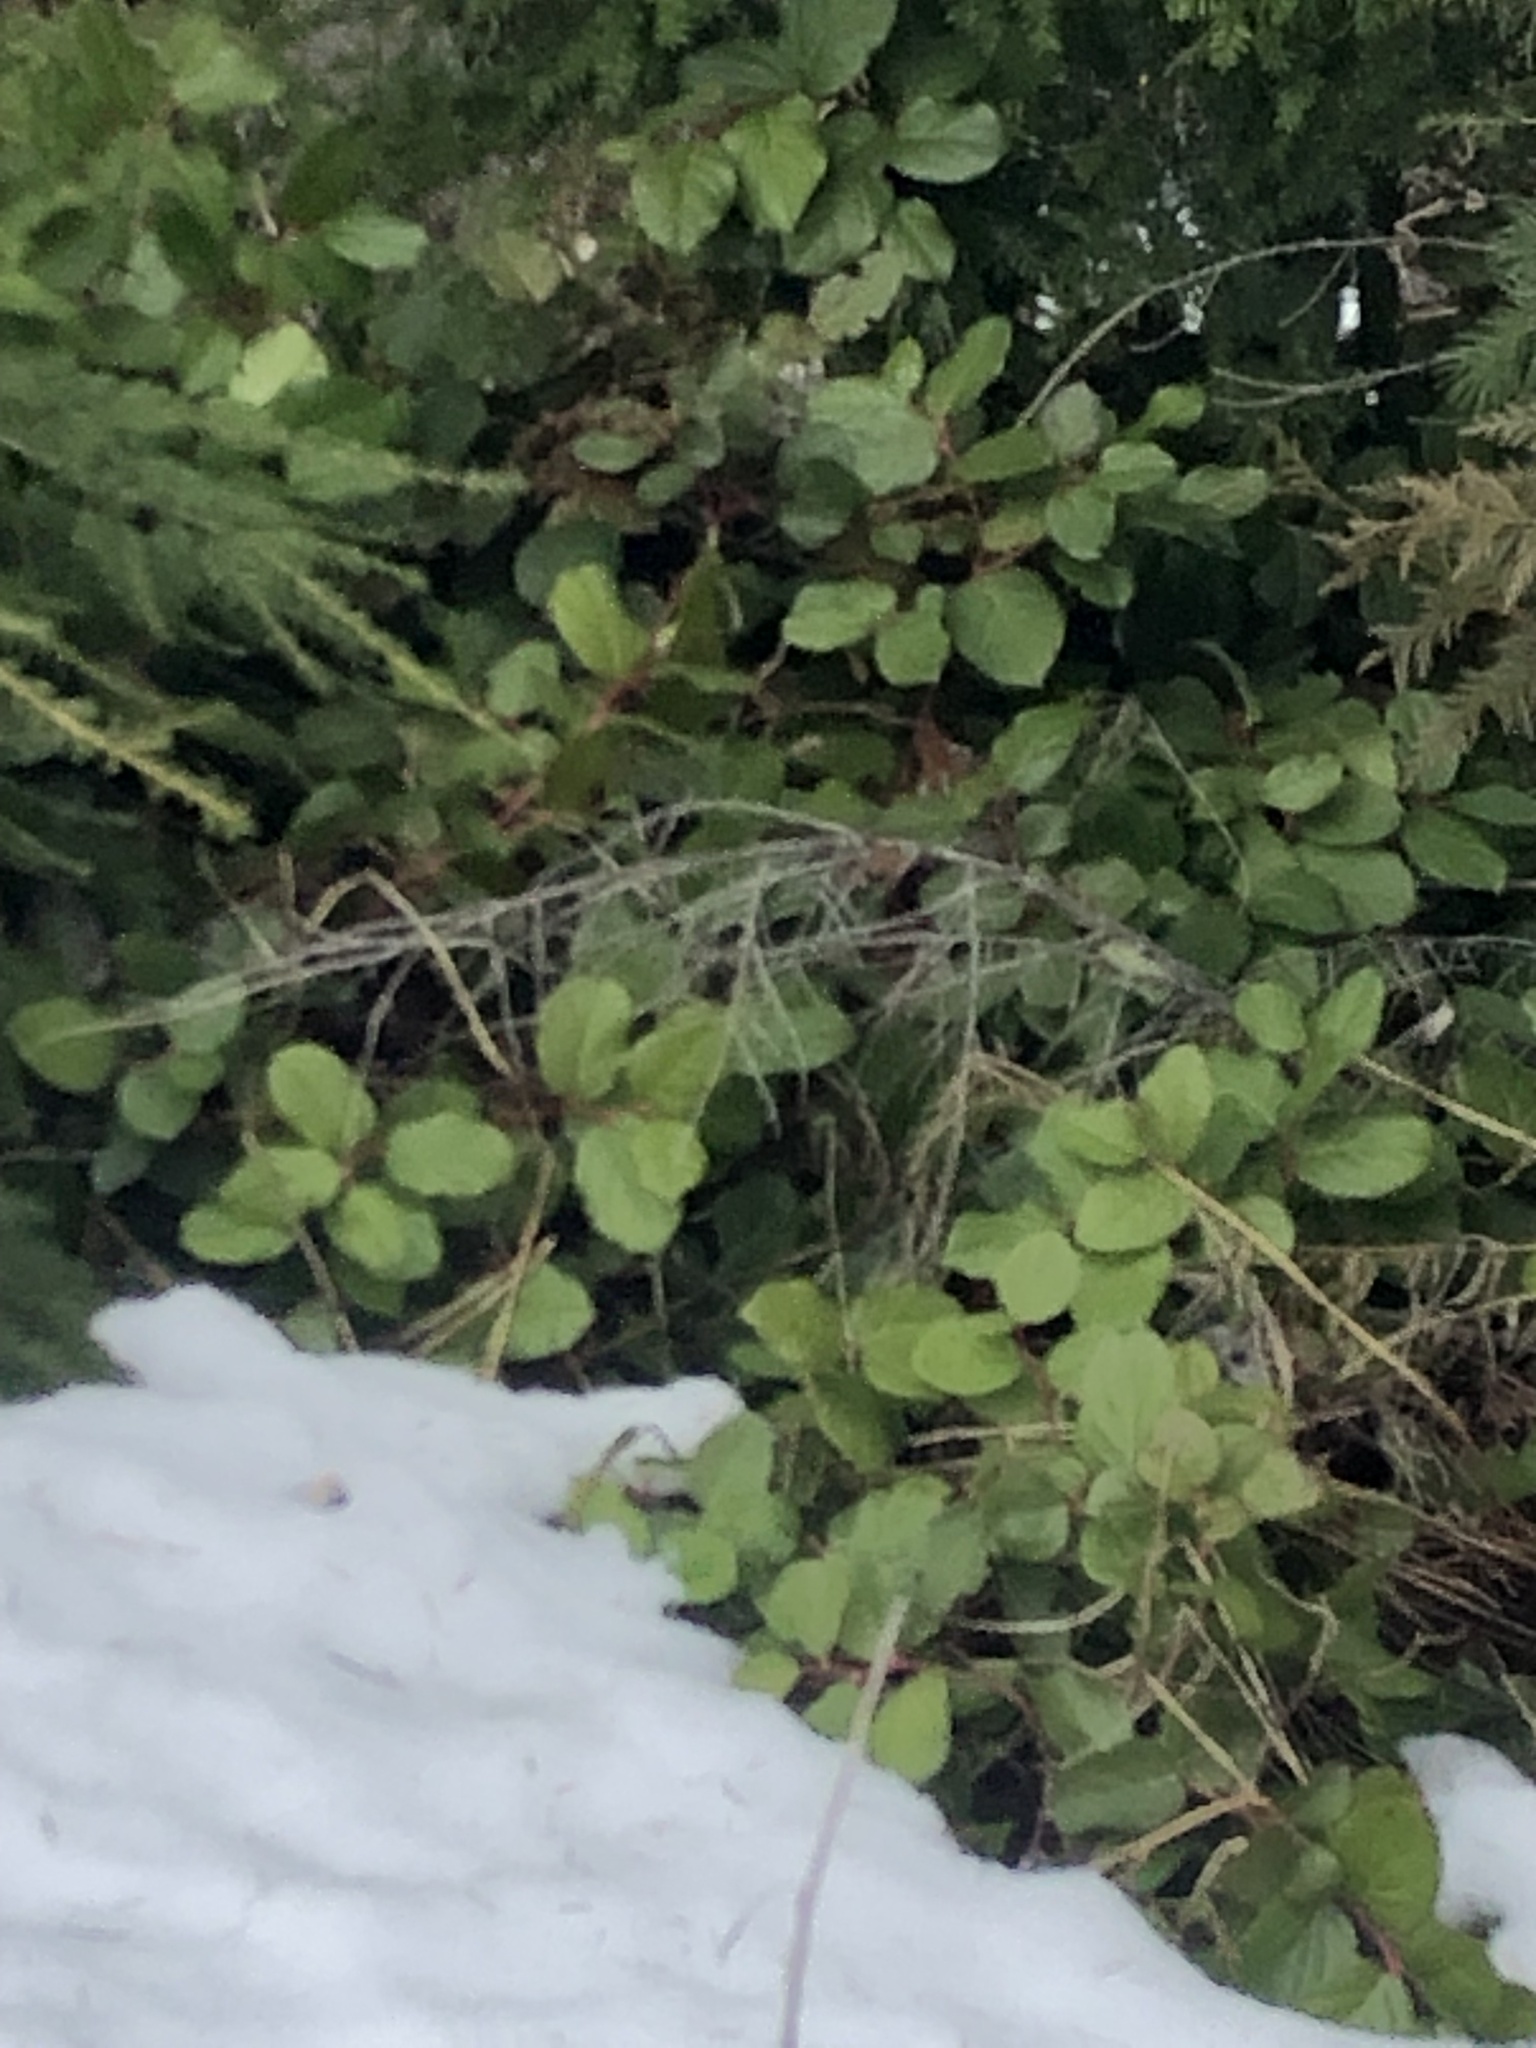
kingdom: Plantae
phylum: Tracheophyta
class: Magnoliopsida
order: Ericales
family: Ericaceae
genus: Gaultheria
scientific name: Gaultheria shallon
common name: Shallon
